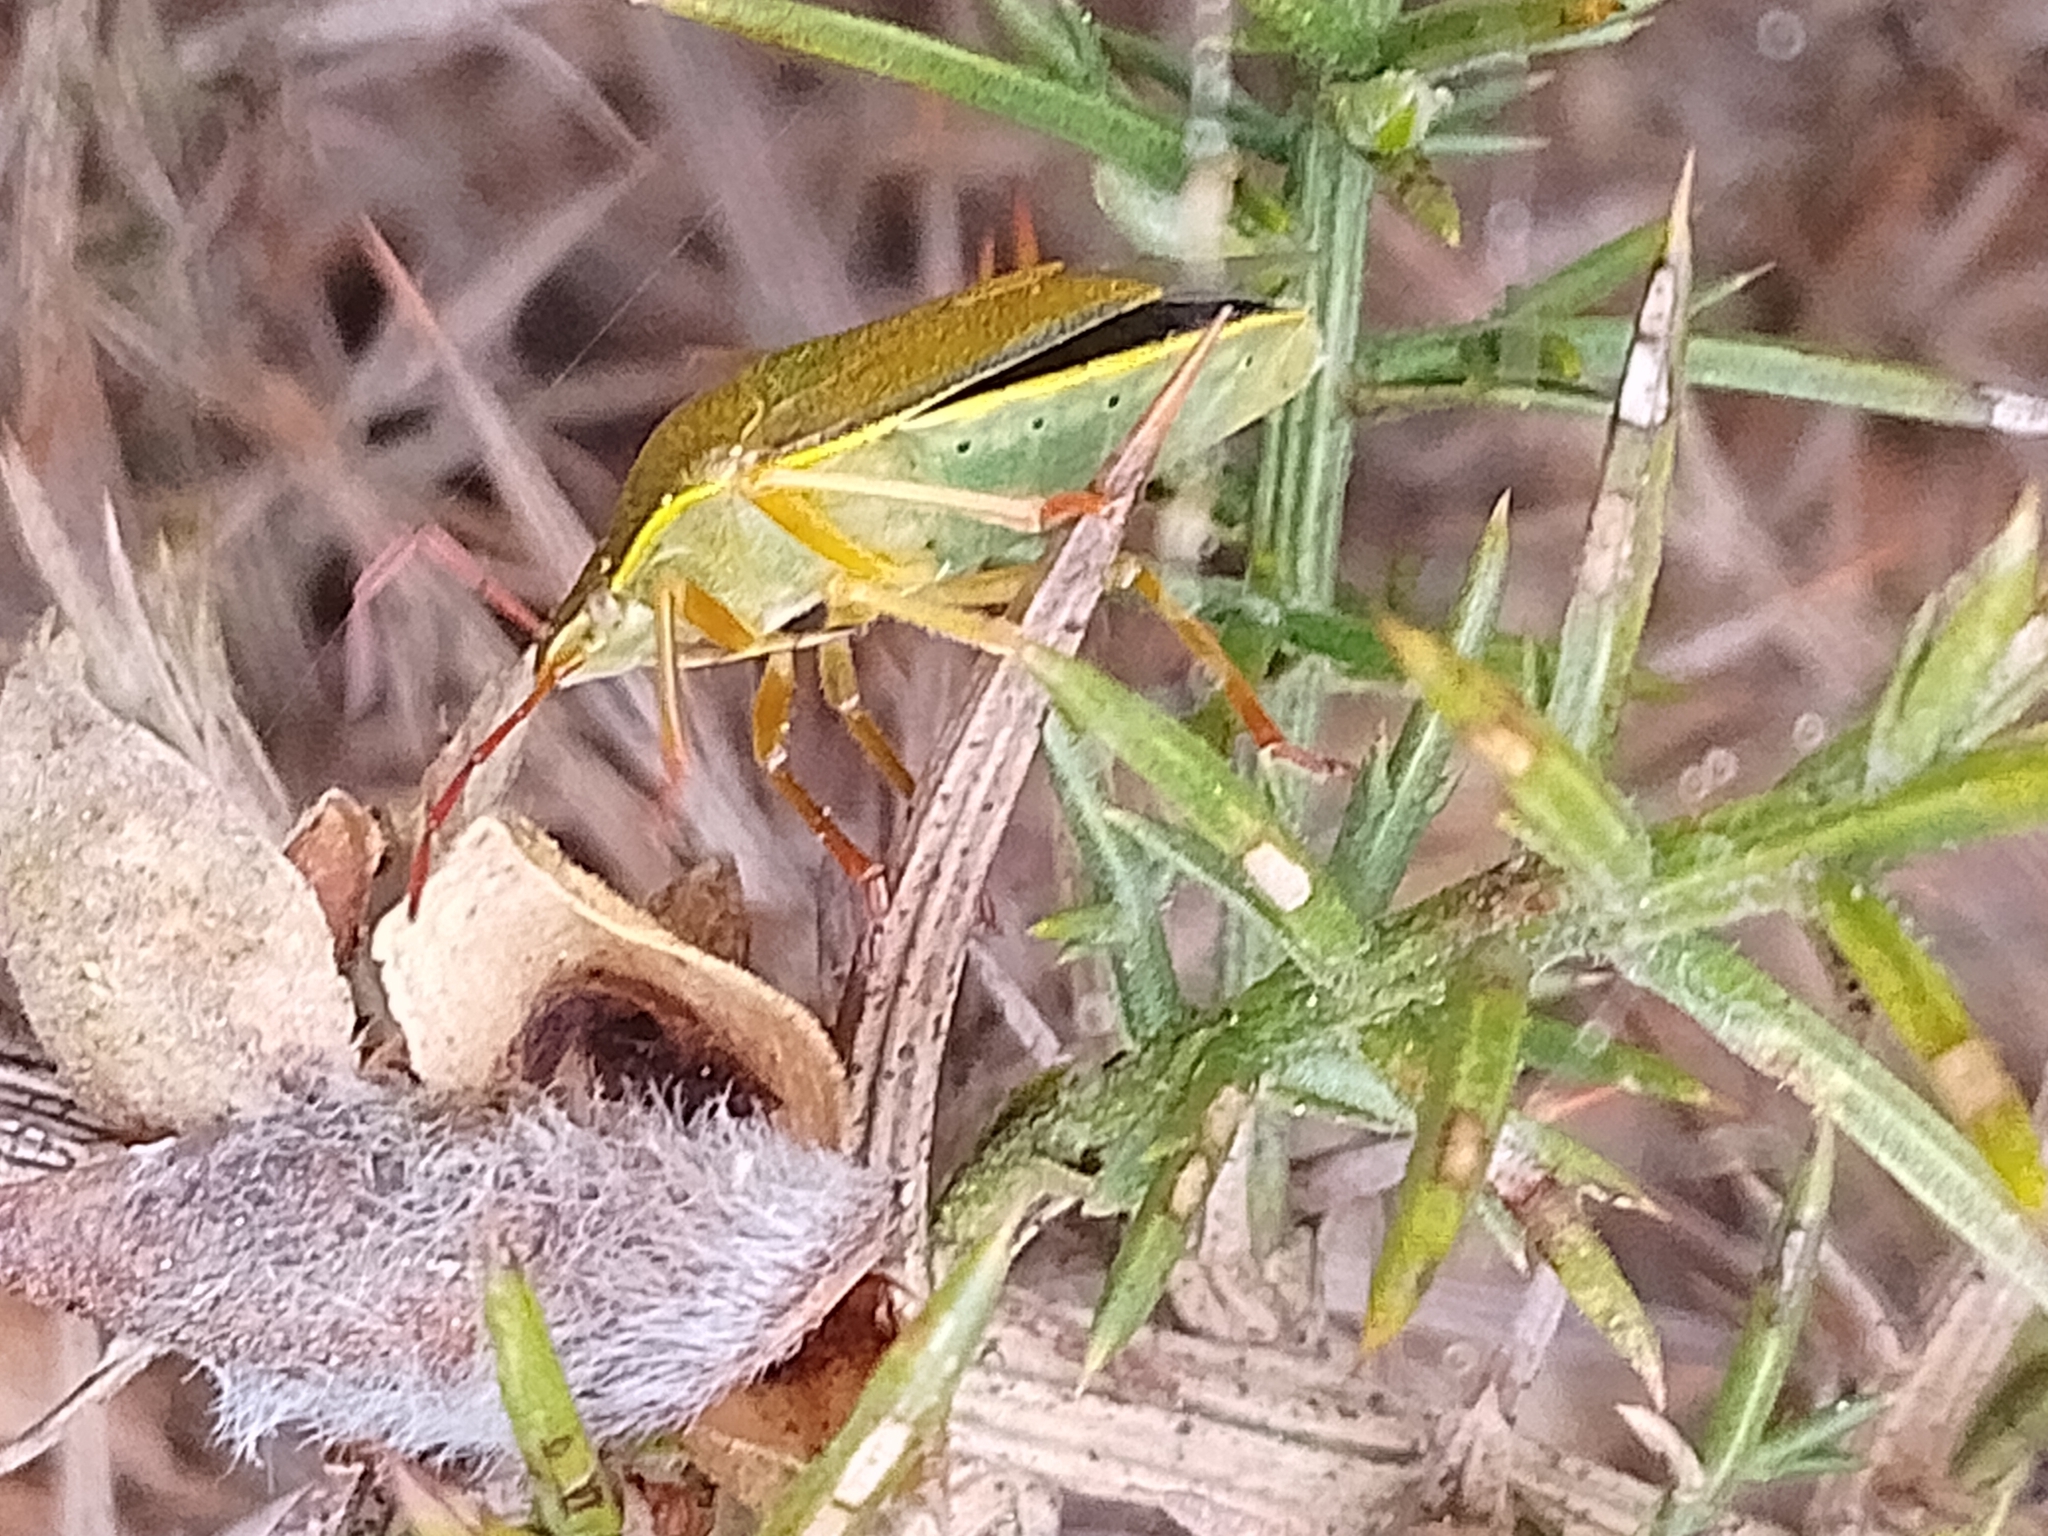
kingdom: Animalia
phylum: Arthropoda
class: Insecta
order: Hemiptera
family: Pentatomidae
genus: Piezodorus
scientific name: Piezodorus lituratus
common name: Stink bug
